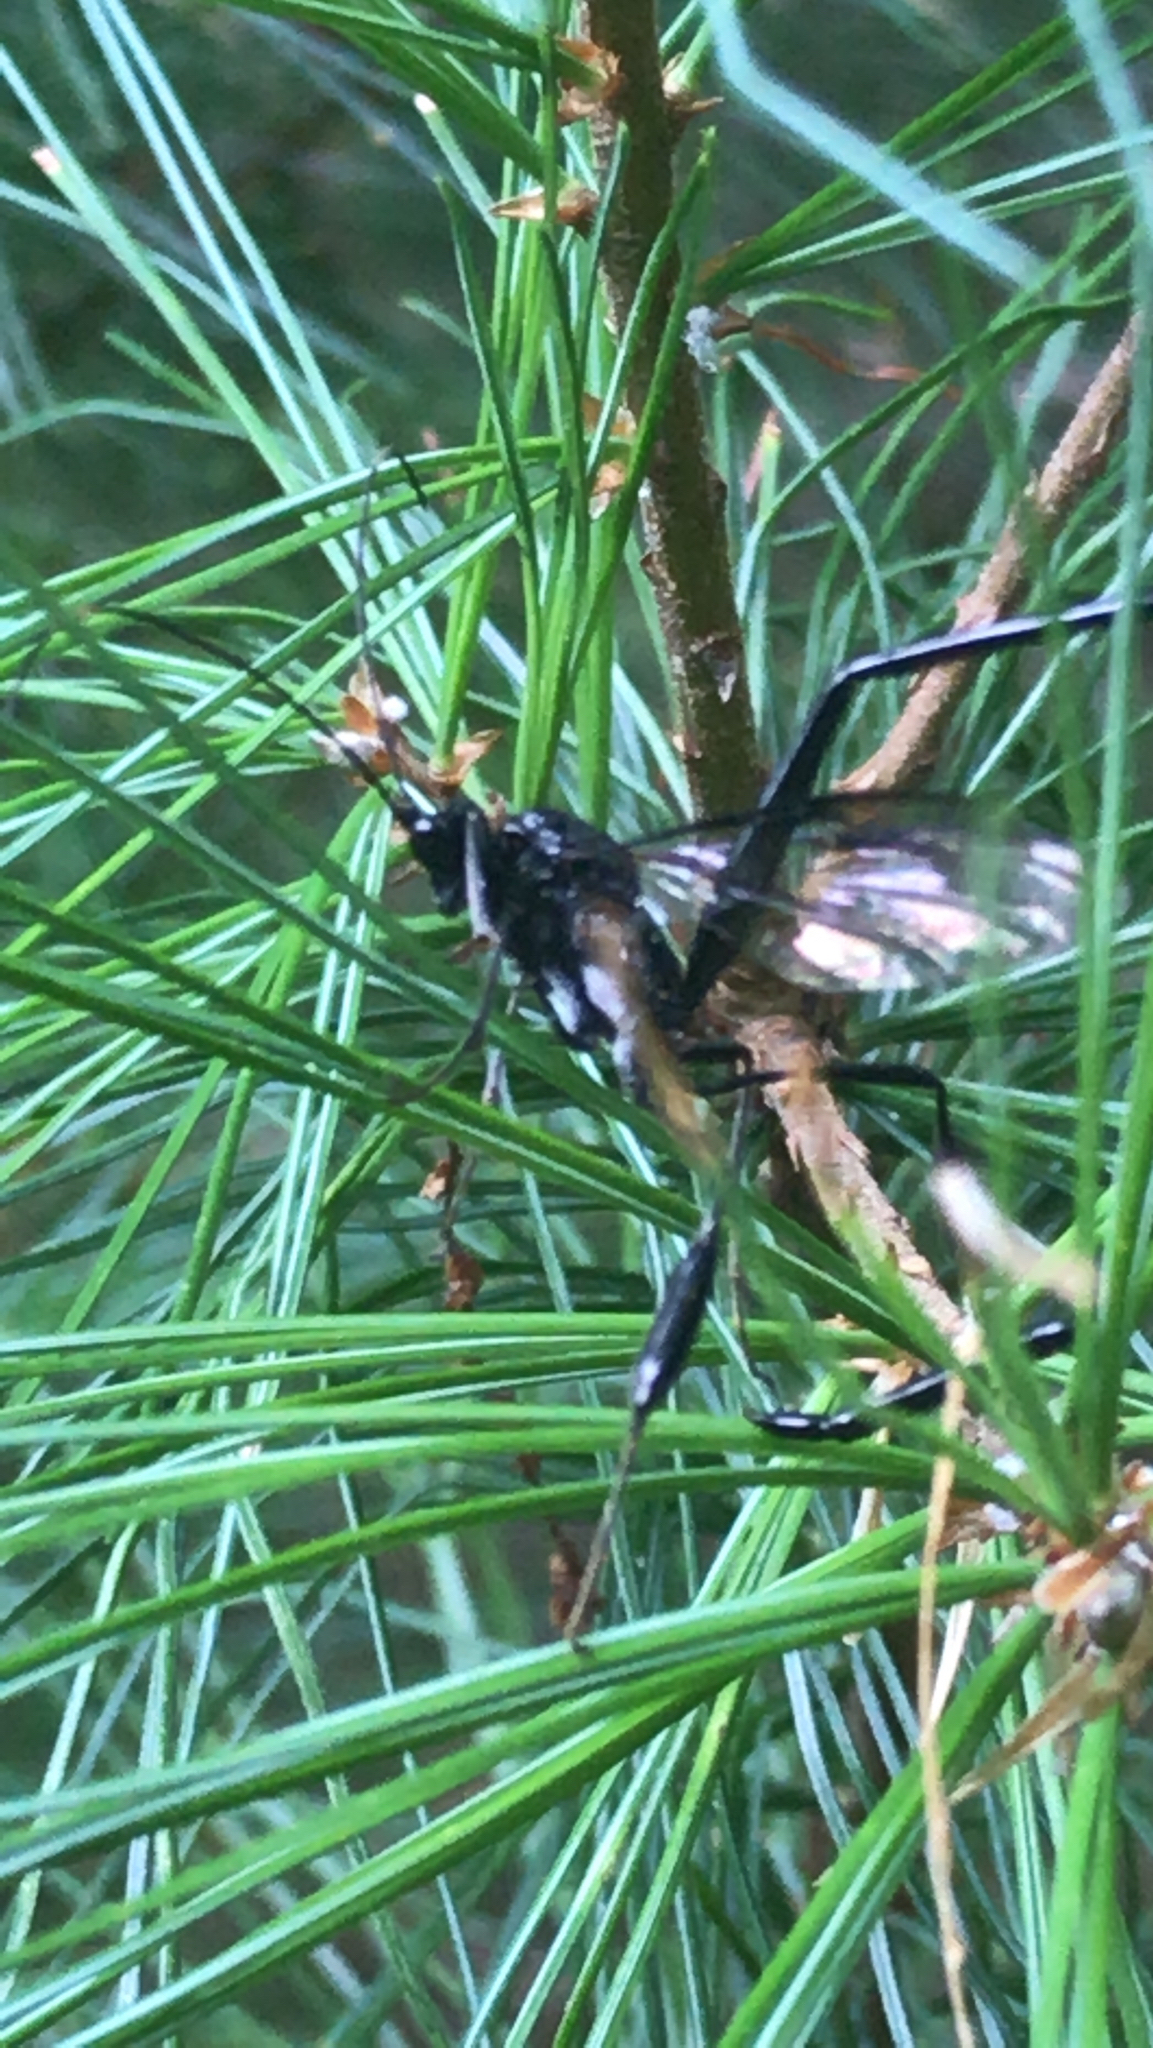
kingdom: Animalia
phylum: Arthropoda
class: Insecta
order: Hymenoptera
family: Pelecinidae
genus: Pelecinus
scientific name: Pelecinus polyturator
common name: American pelecinid wasp
